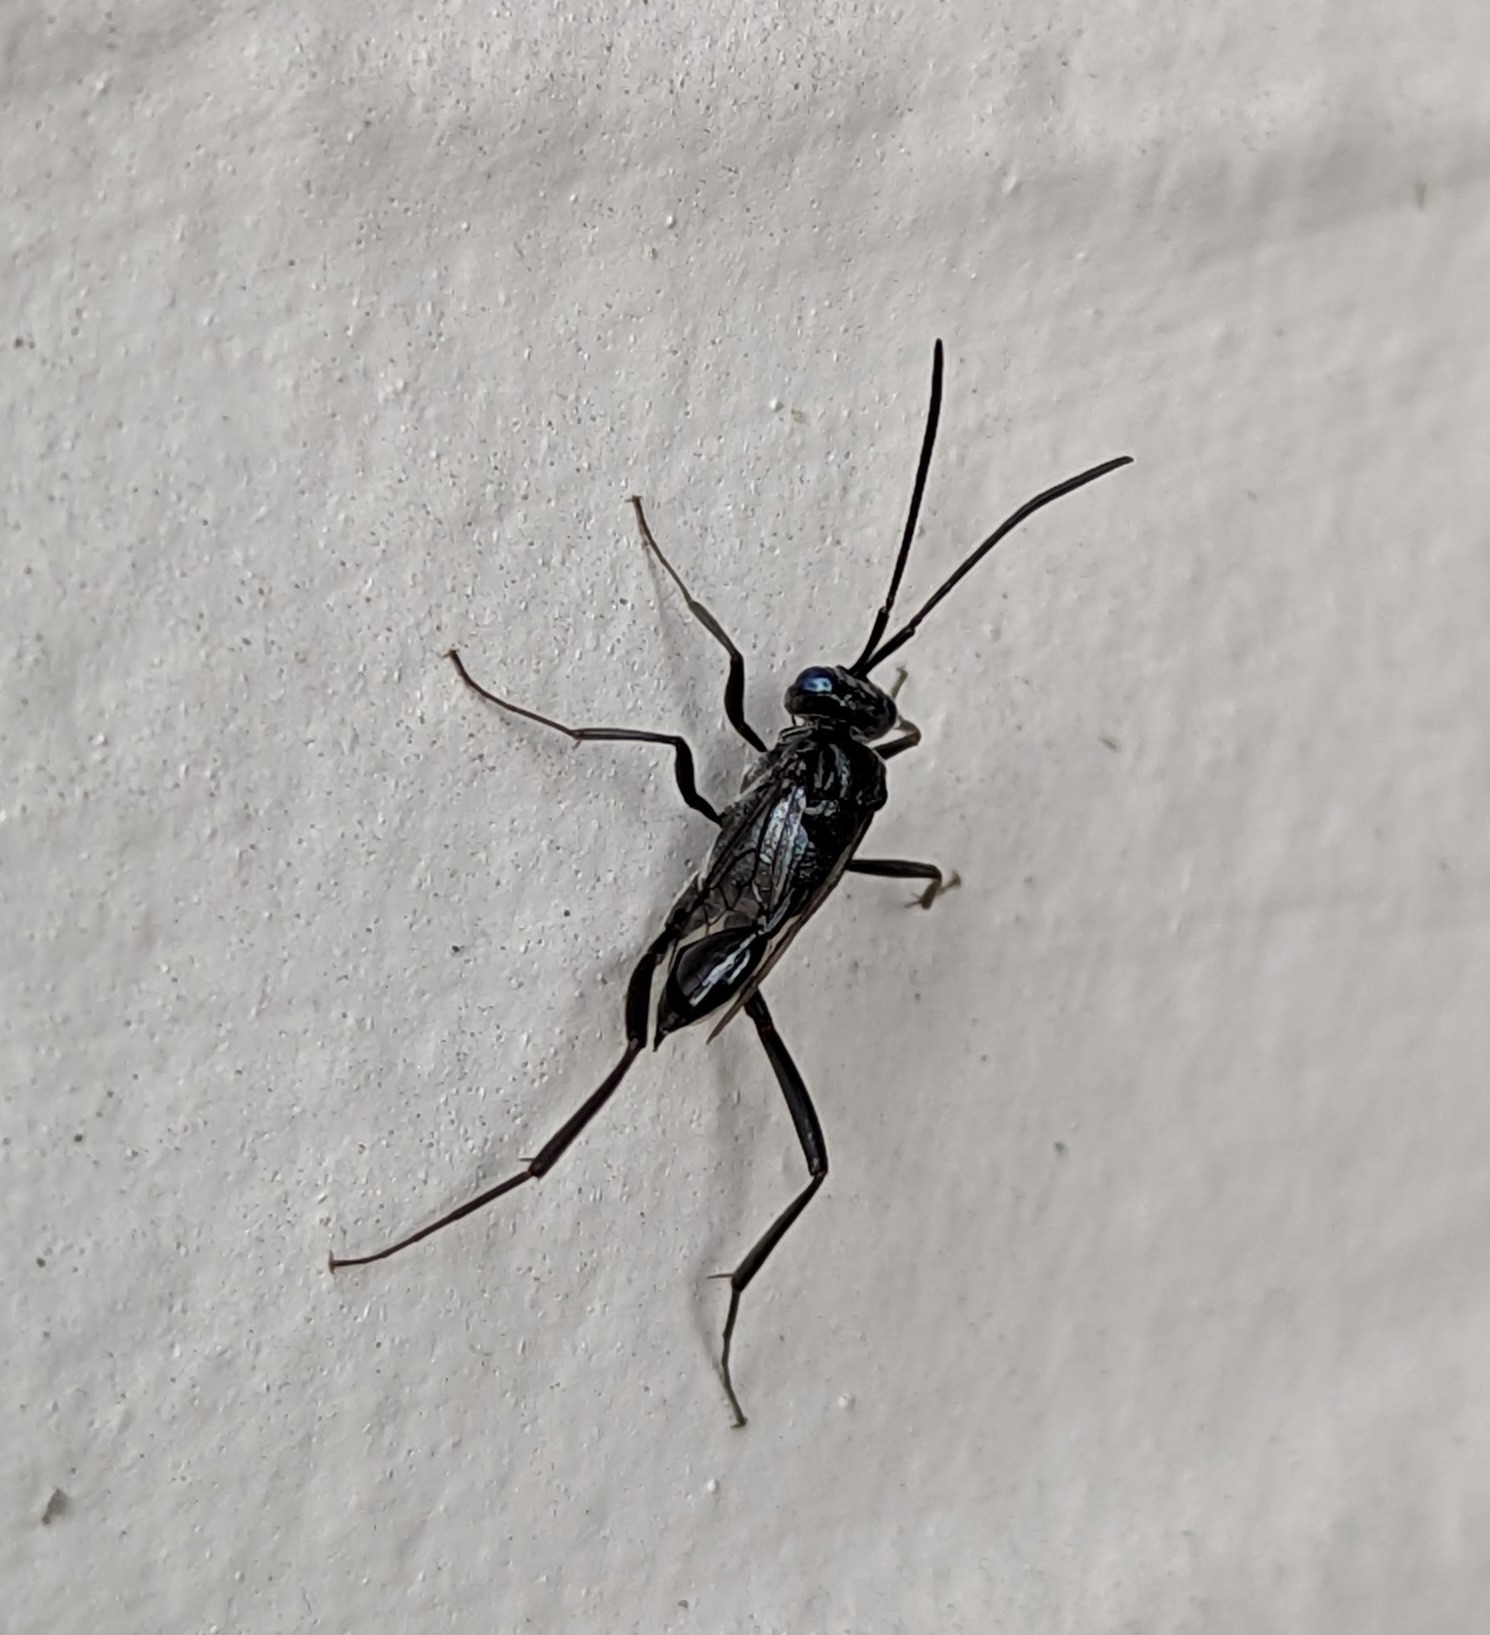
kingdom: Animalia
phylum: Arthropoda
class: Insecta
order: Hymenoptera
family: Evaniidae
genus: Evania
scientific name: Evania appendigaster
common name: Ensign wasp
